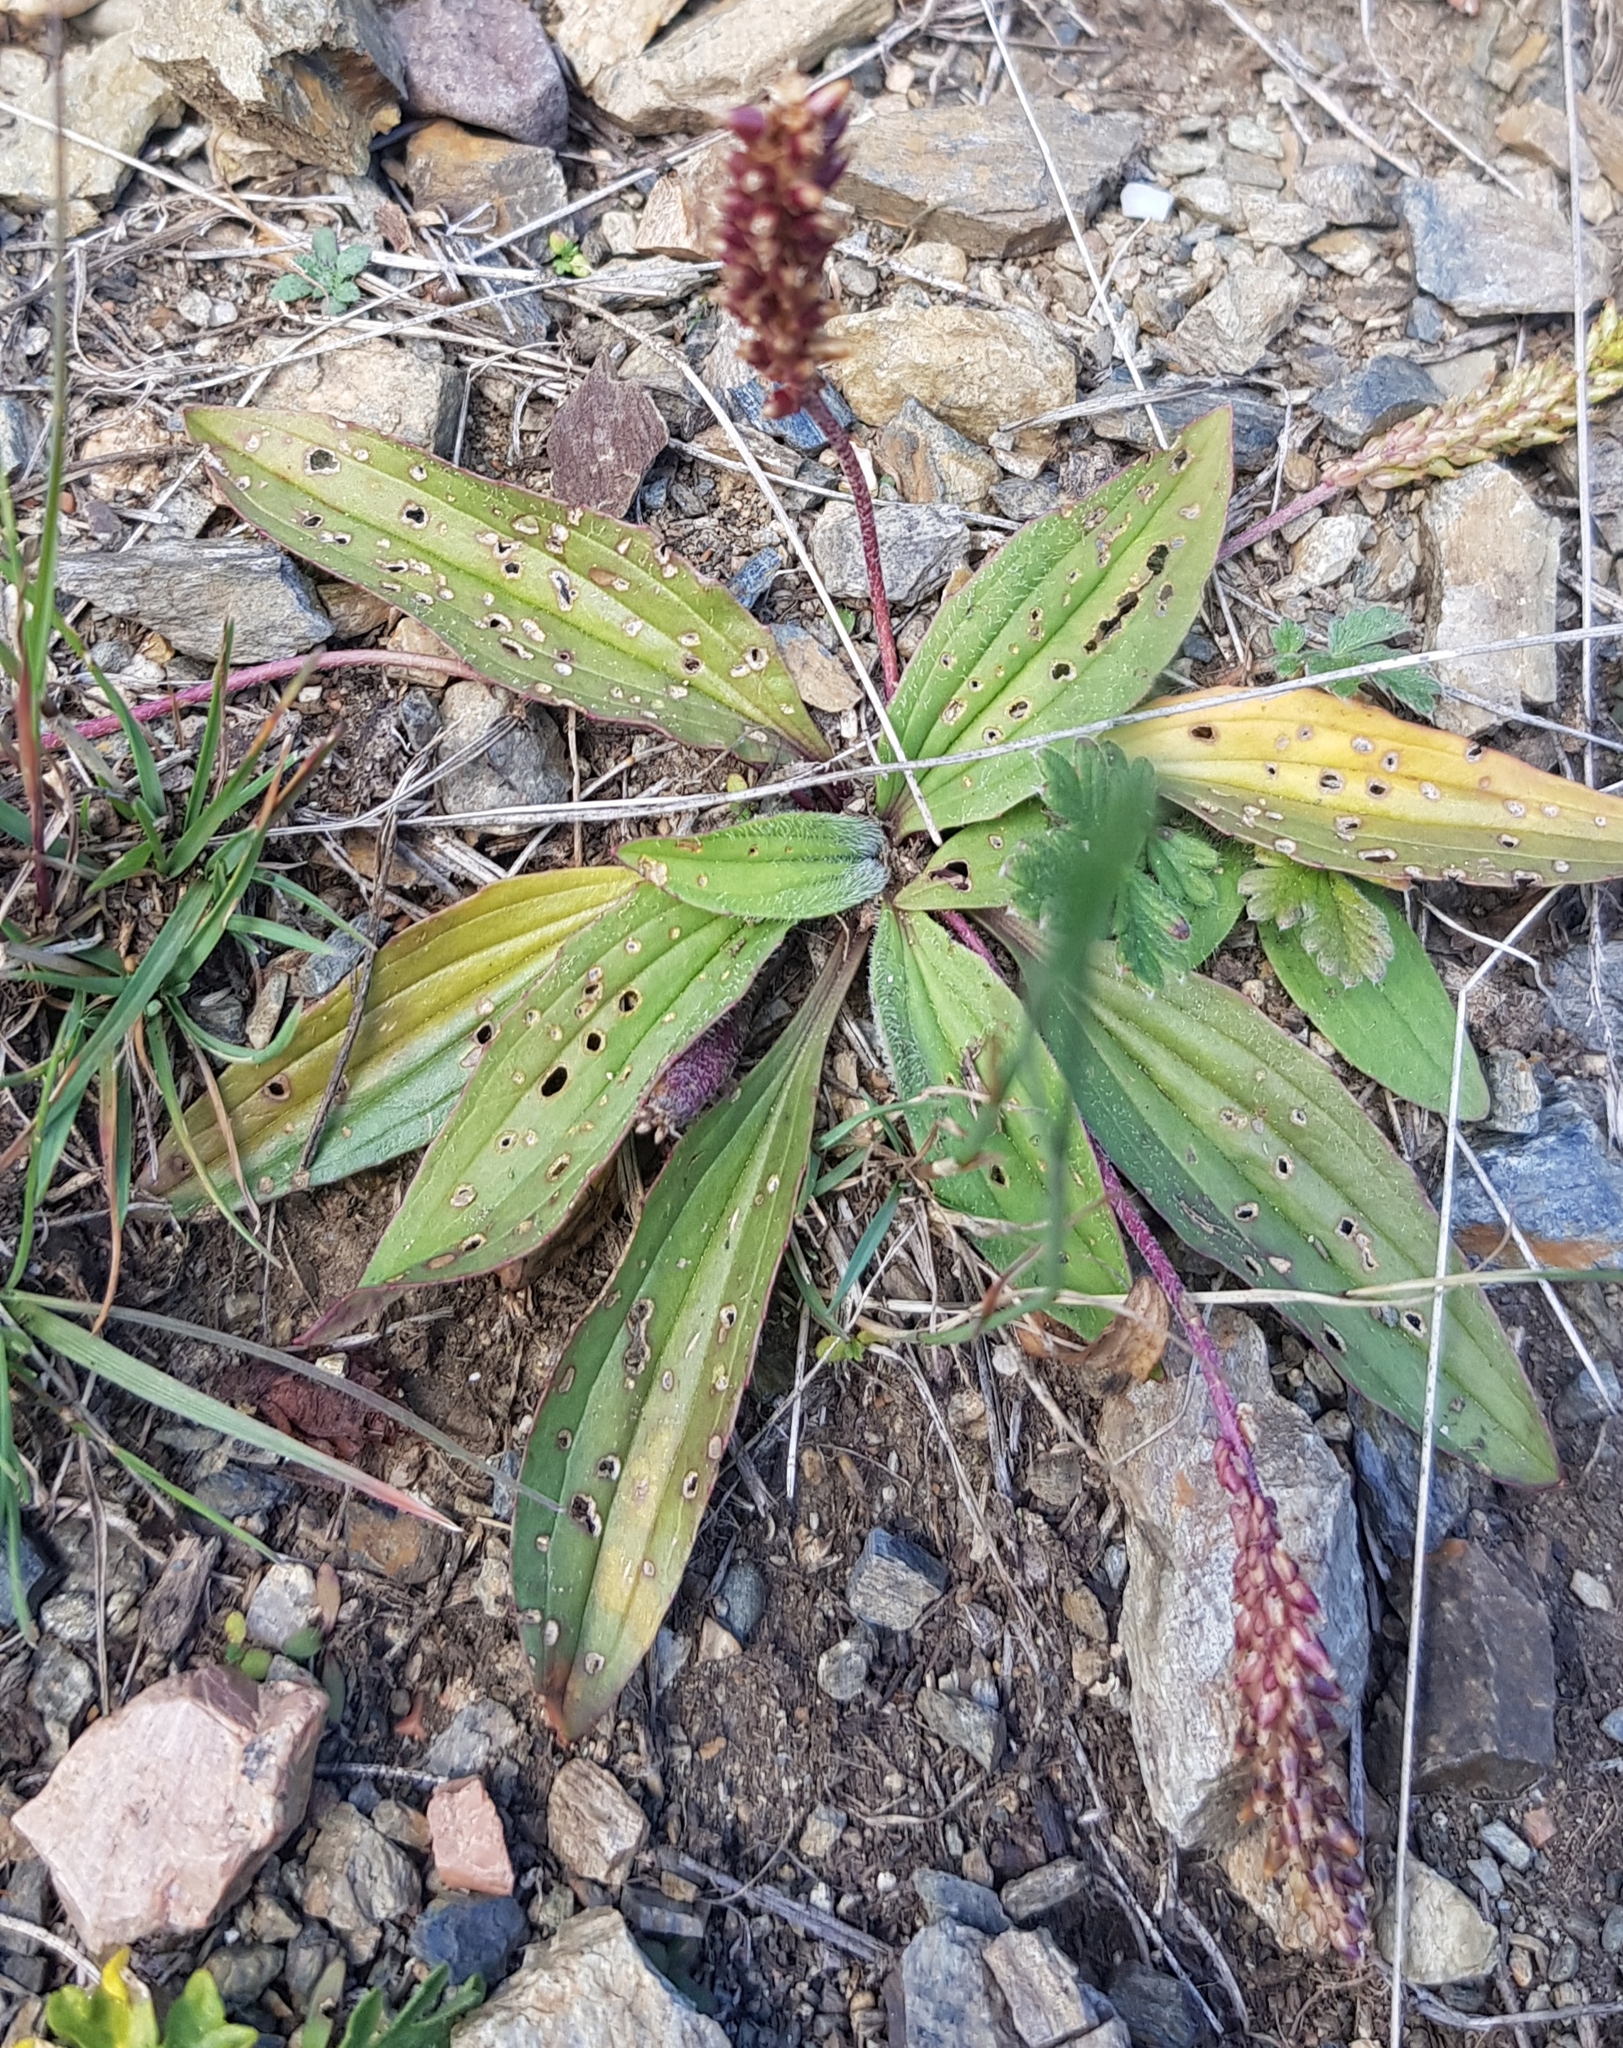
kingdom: Plantae
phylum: Tracheophyta
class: Magnoliopsida
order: Lamiales
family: Plantaginaceae
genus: Plantago
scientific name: Plantago depressa
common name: Depressed plantain
